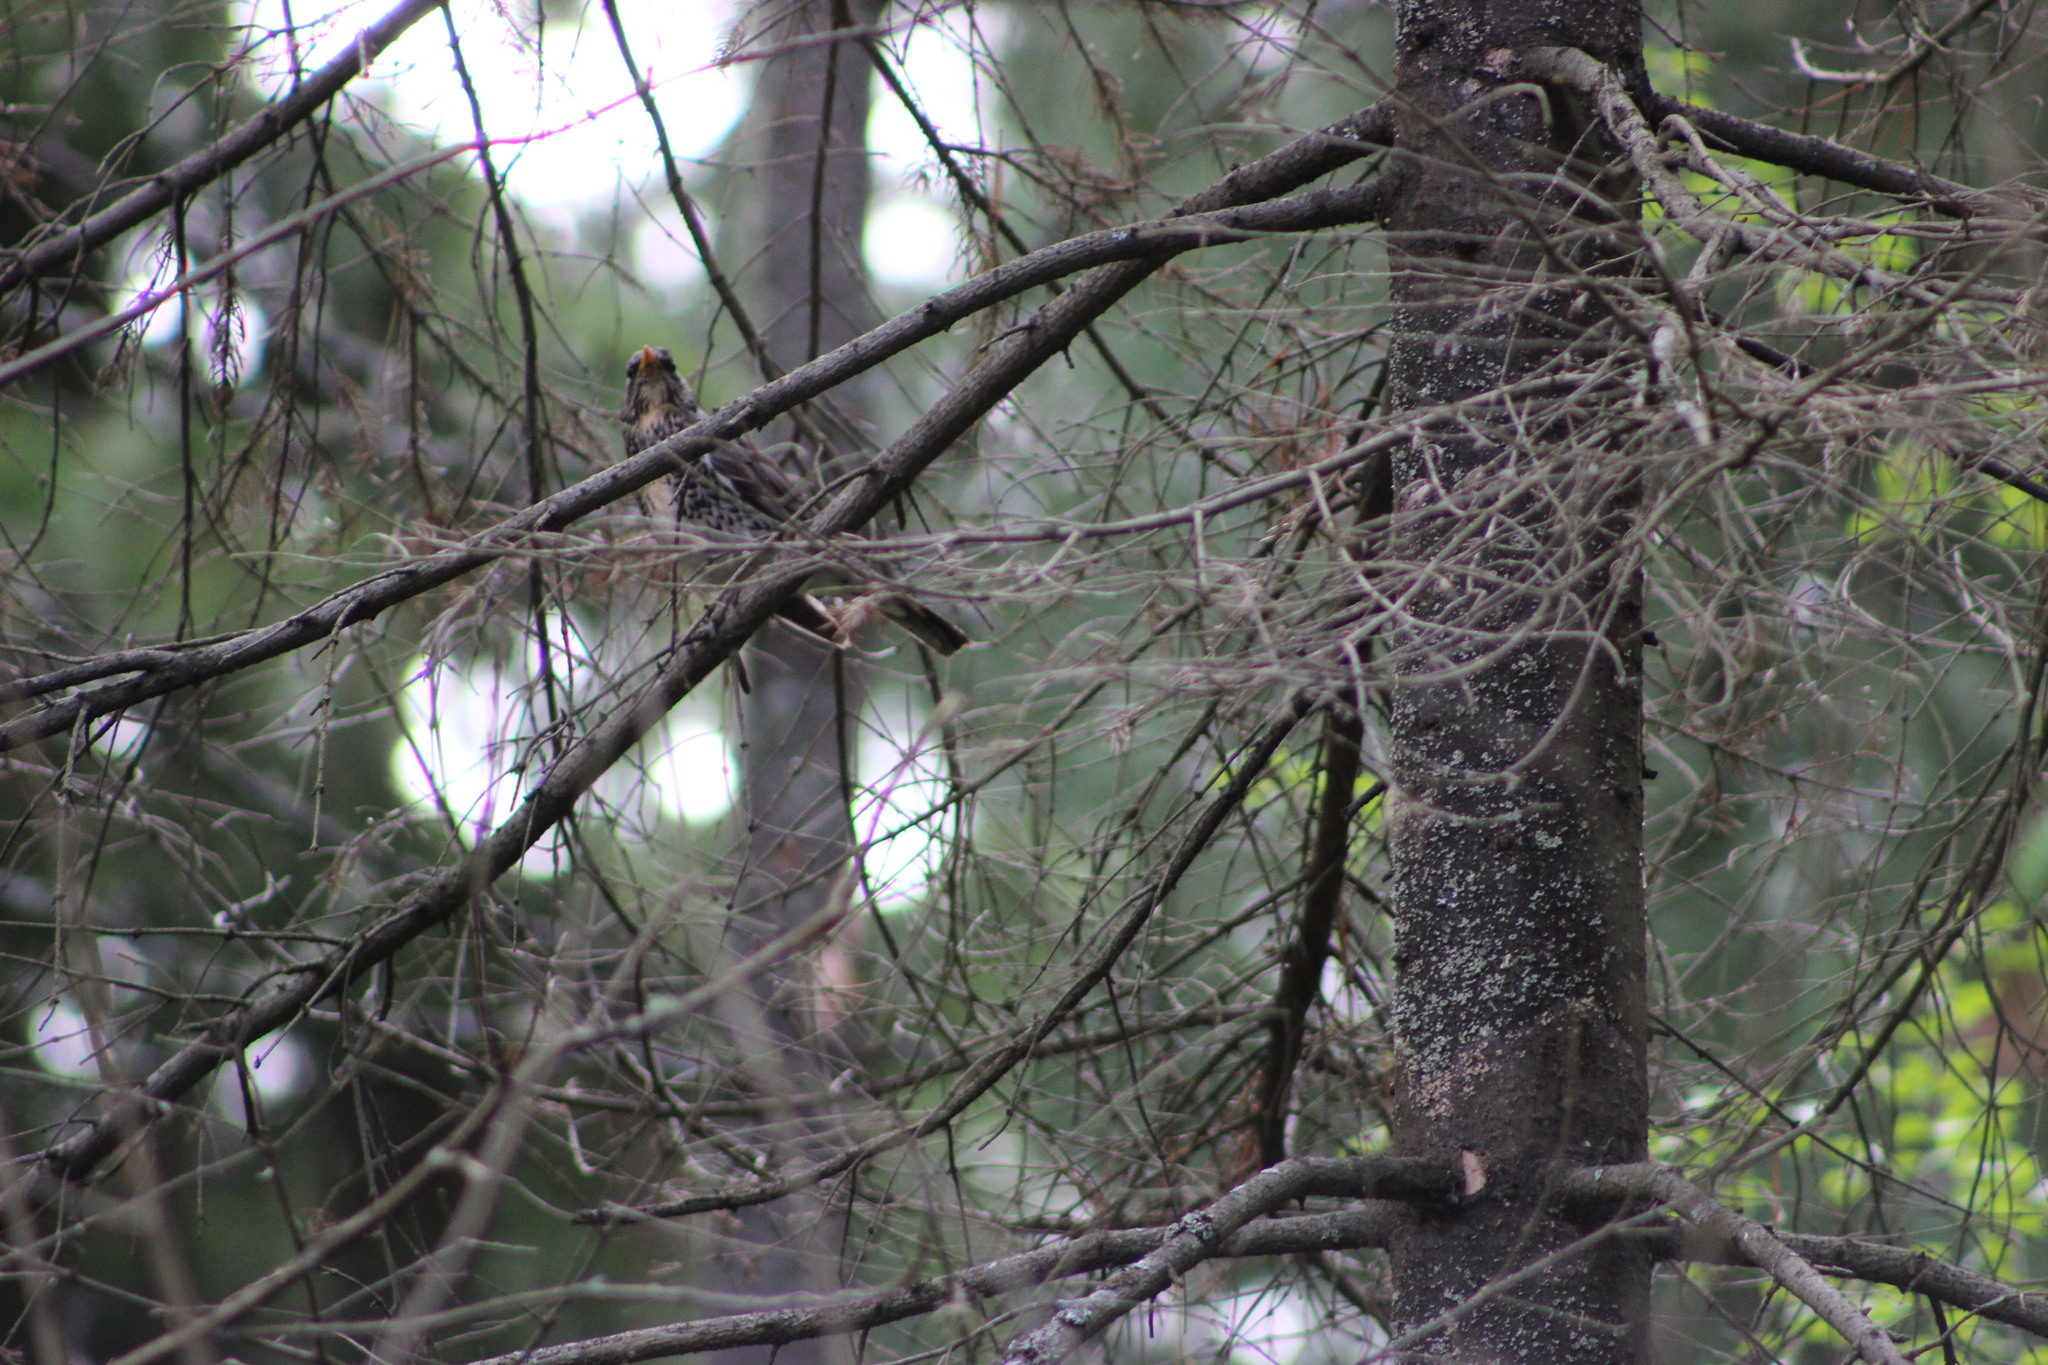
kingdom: Animalia
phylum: Chordata
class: Aves
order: Passeriformes
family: Turdidae
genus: Turdus
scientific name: Turdus pilaris
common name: Fieldfare
